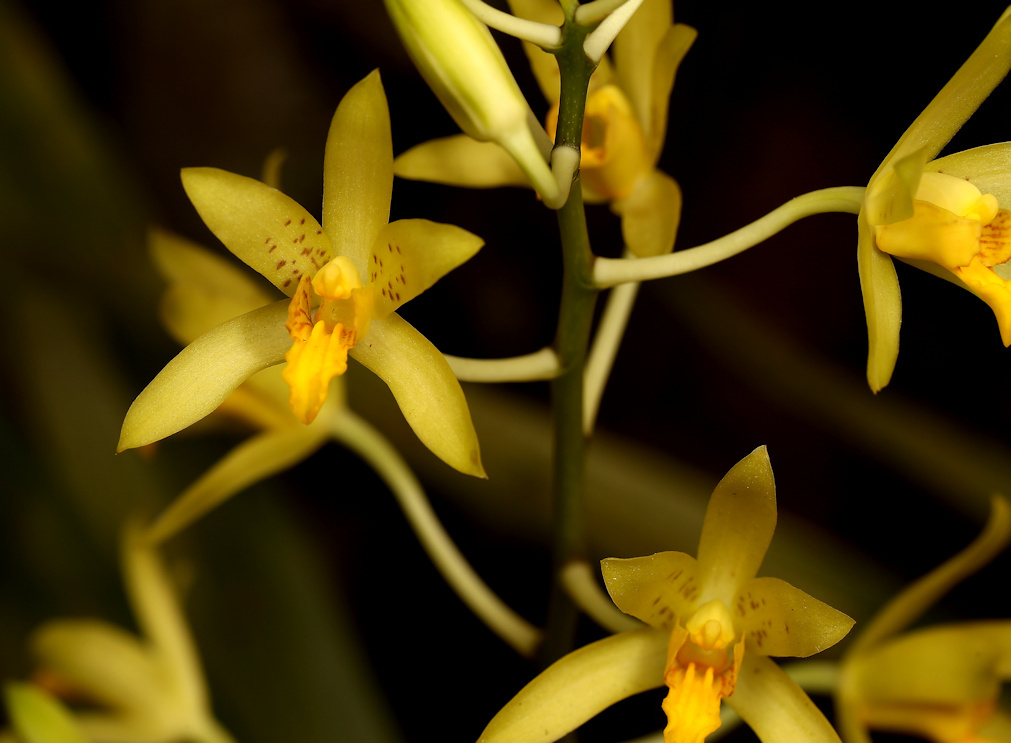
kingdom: Plantae
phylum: Tracheophyta
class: Liliopsida
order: Asparagales
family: Orchidaceae
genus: Ansellia
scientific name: Ansellia africana
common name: African ansellia
